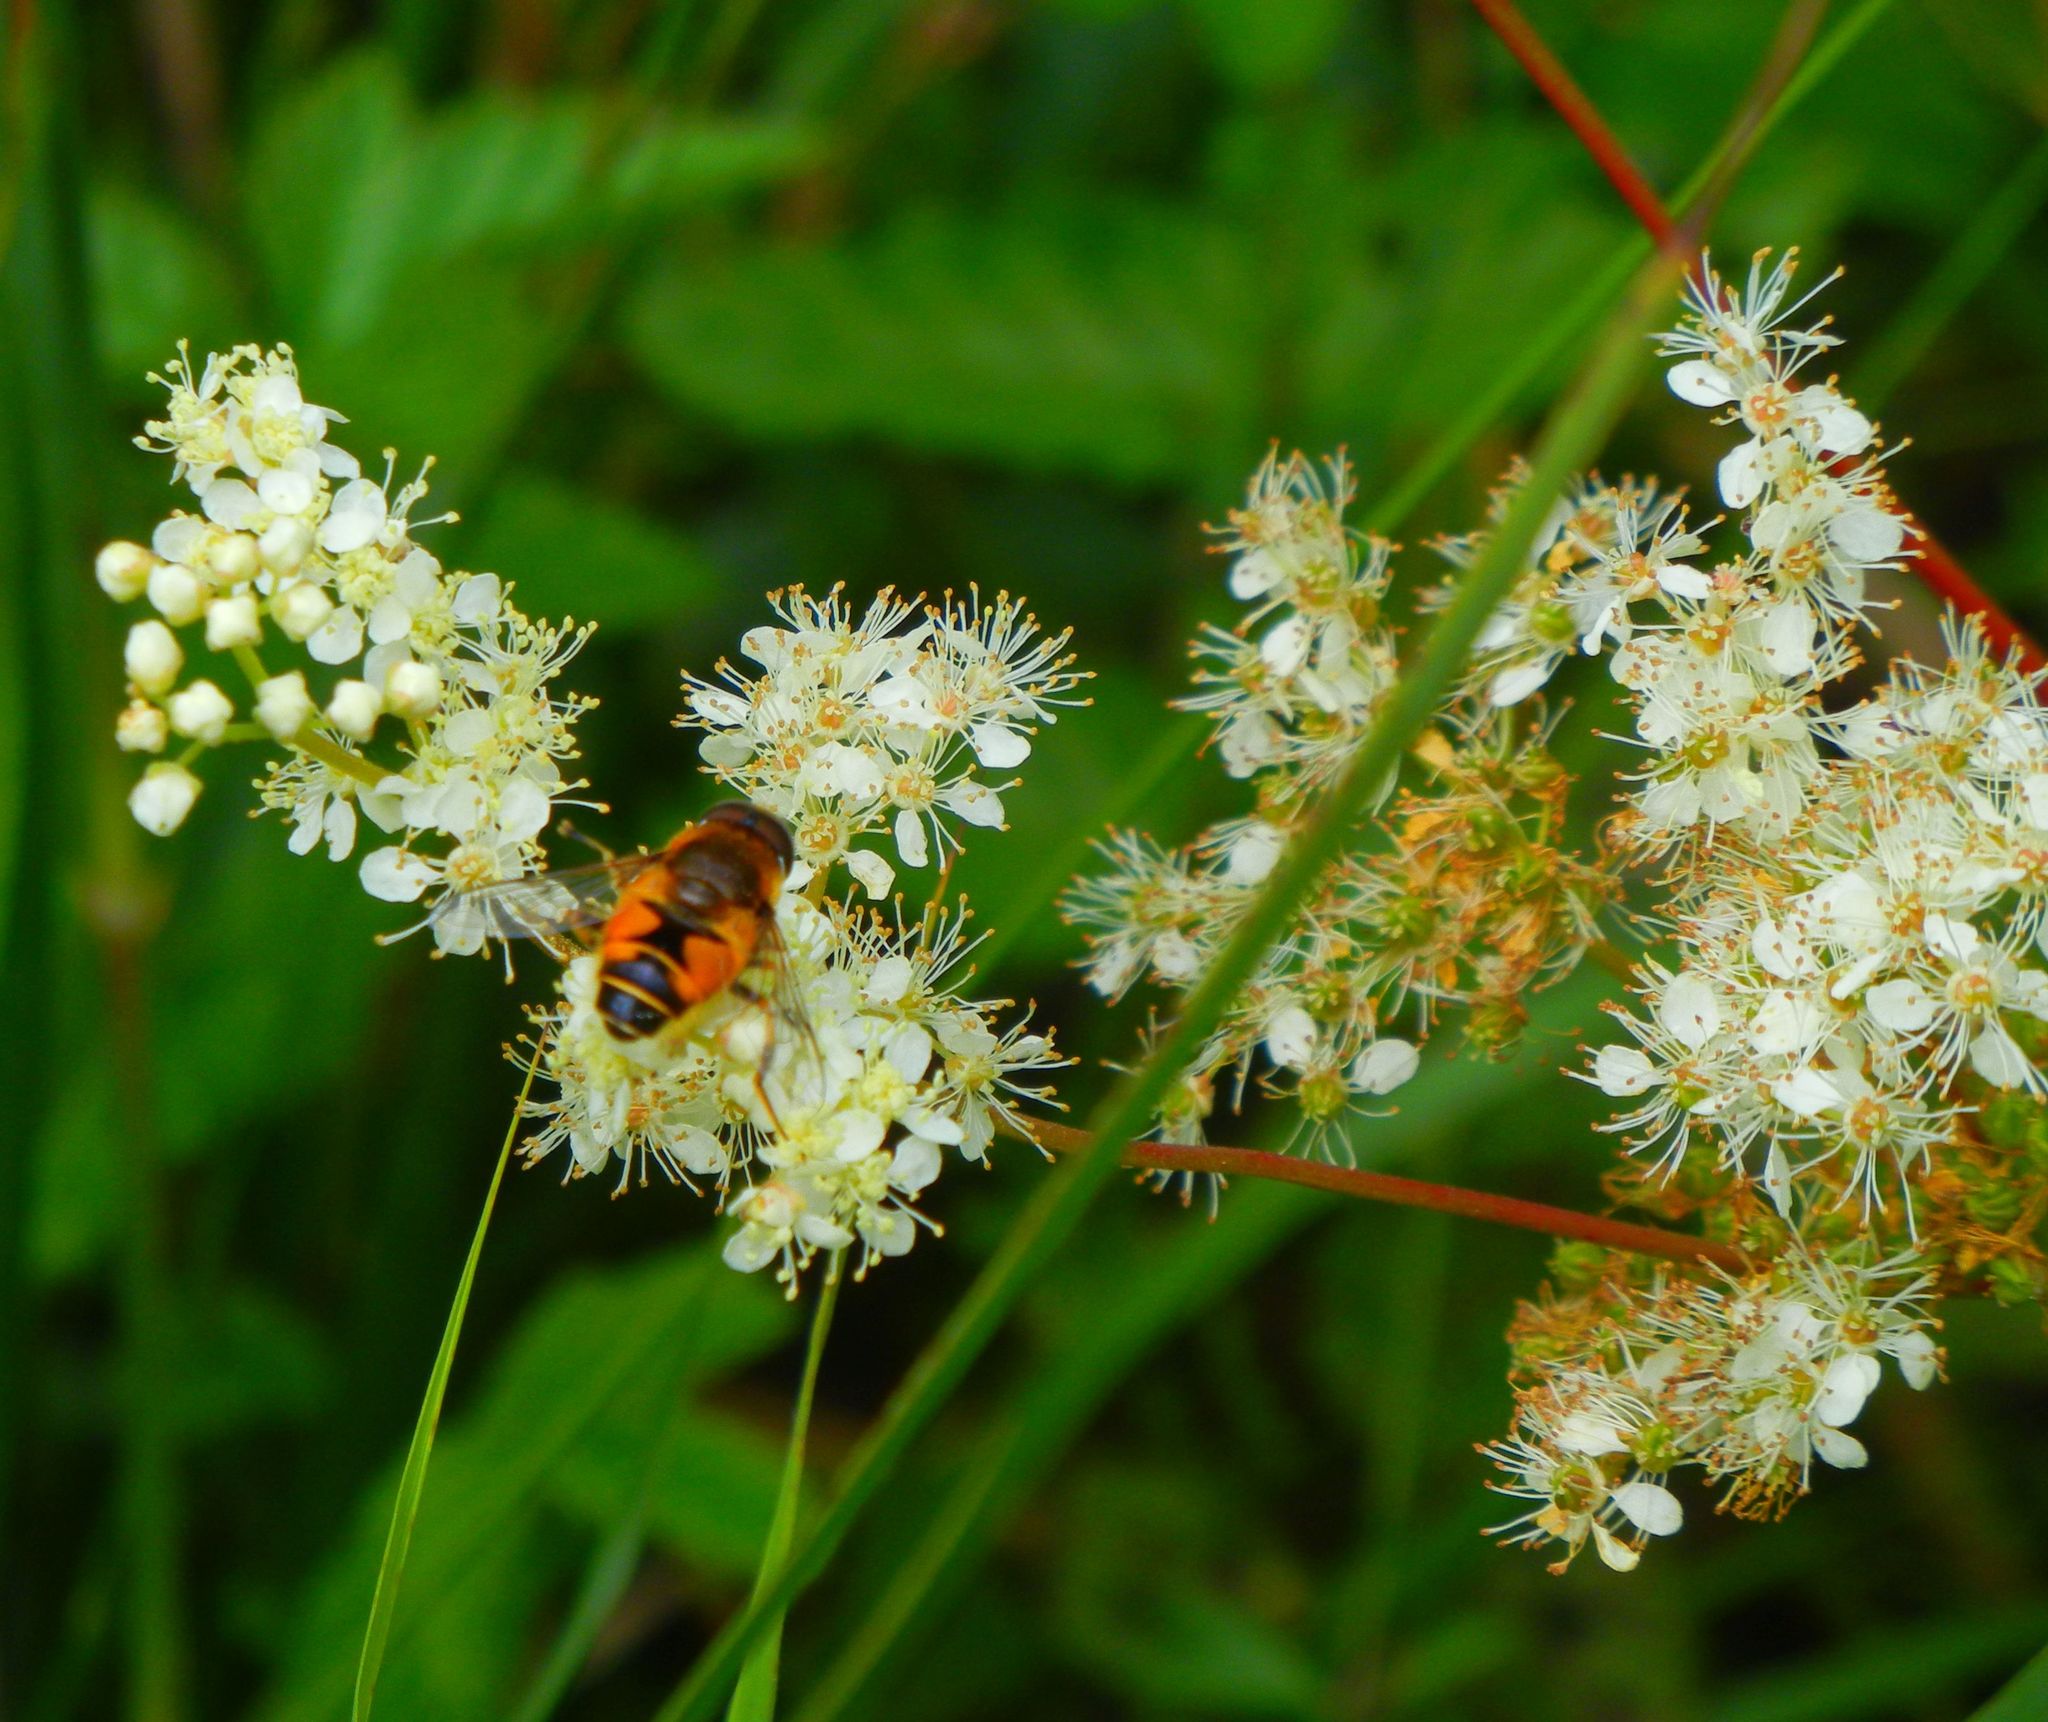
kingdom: Plantae
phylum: Tracheophyta
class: Magnoliopsida
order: Rosales
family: Rosaceae
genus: Filipendula
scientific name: Filipendula ulmaria
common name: Meadowsweet
